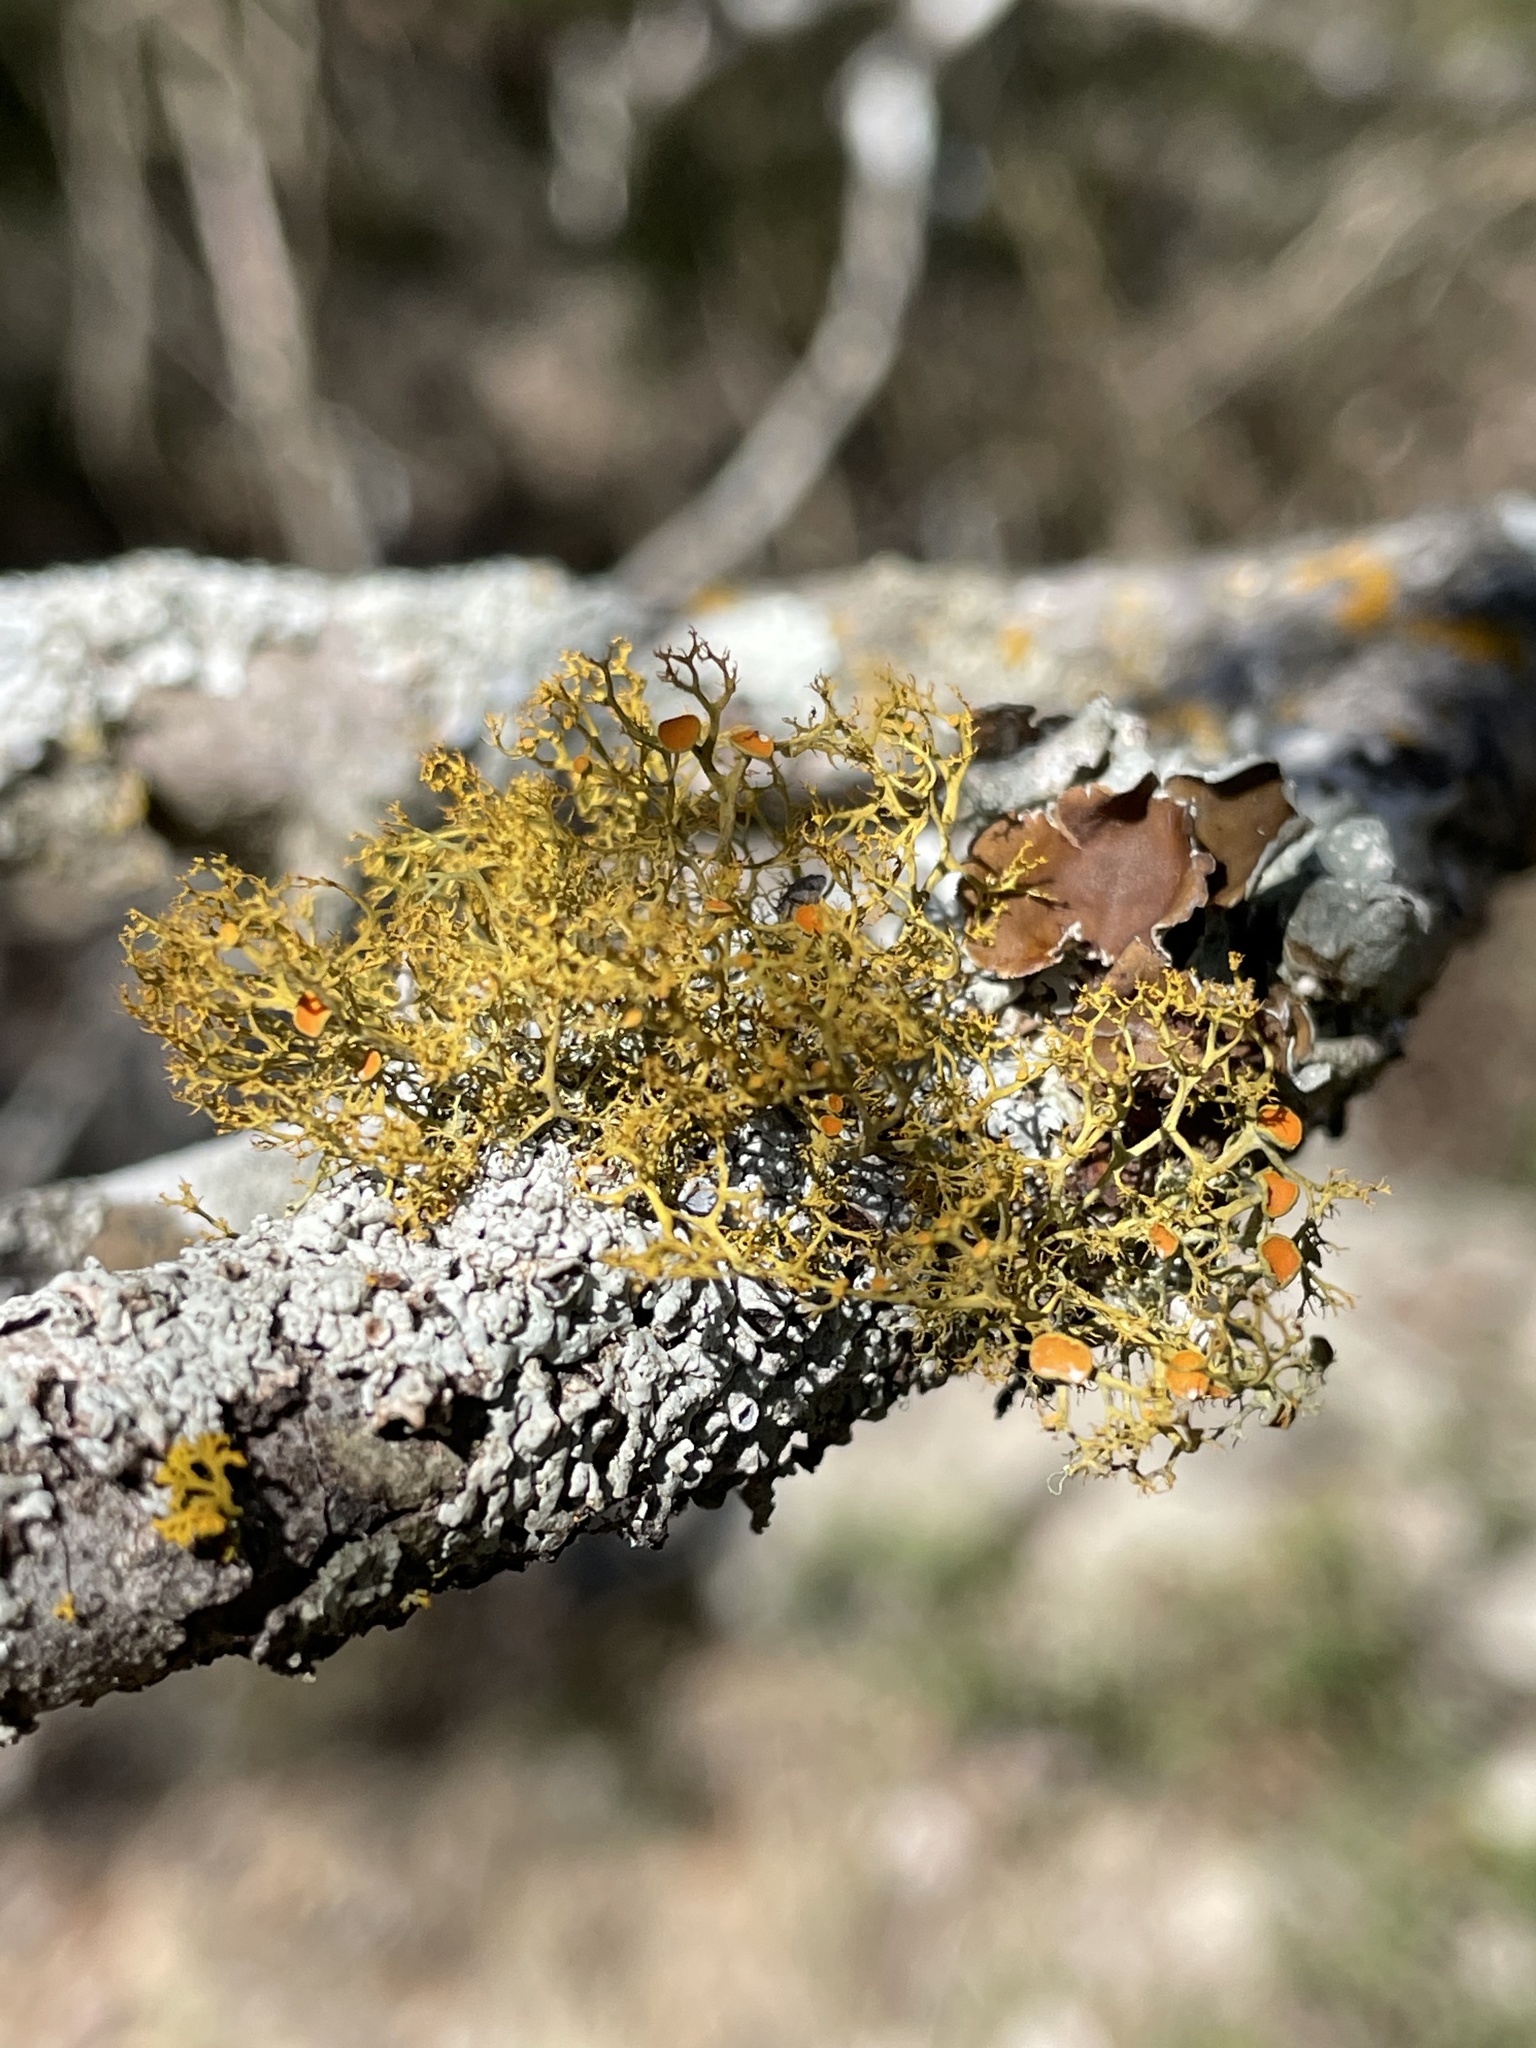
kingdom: Fungi
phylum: Ascomycota
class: Lecanoromycetes
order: Teloschistales
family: Teloschistaceae
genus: Teloschistes
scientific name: Teloschistes exilis
